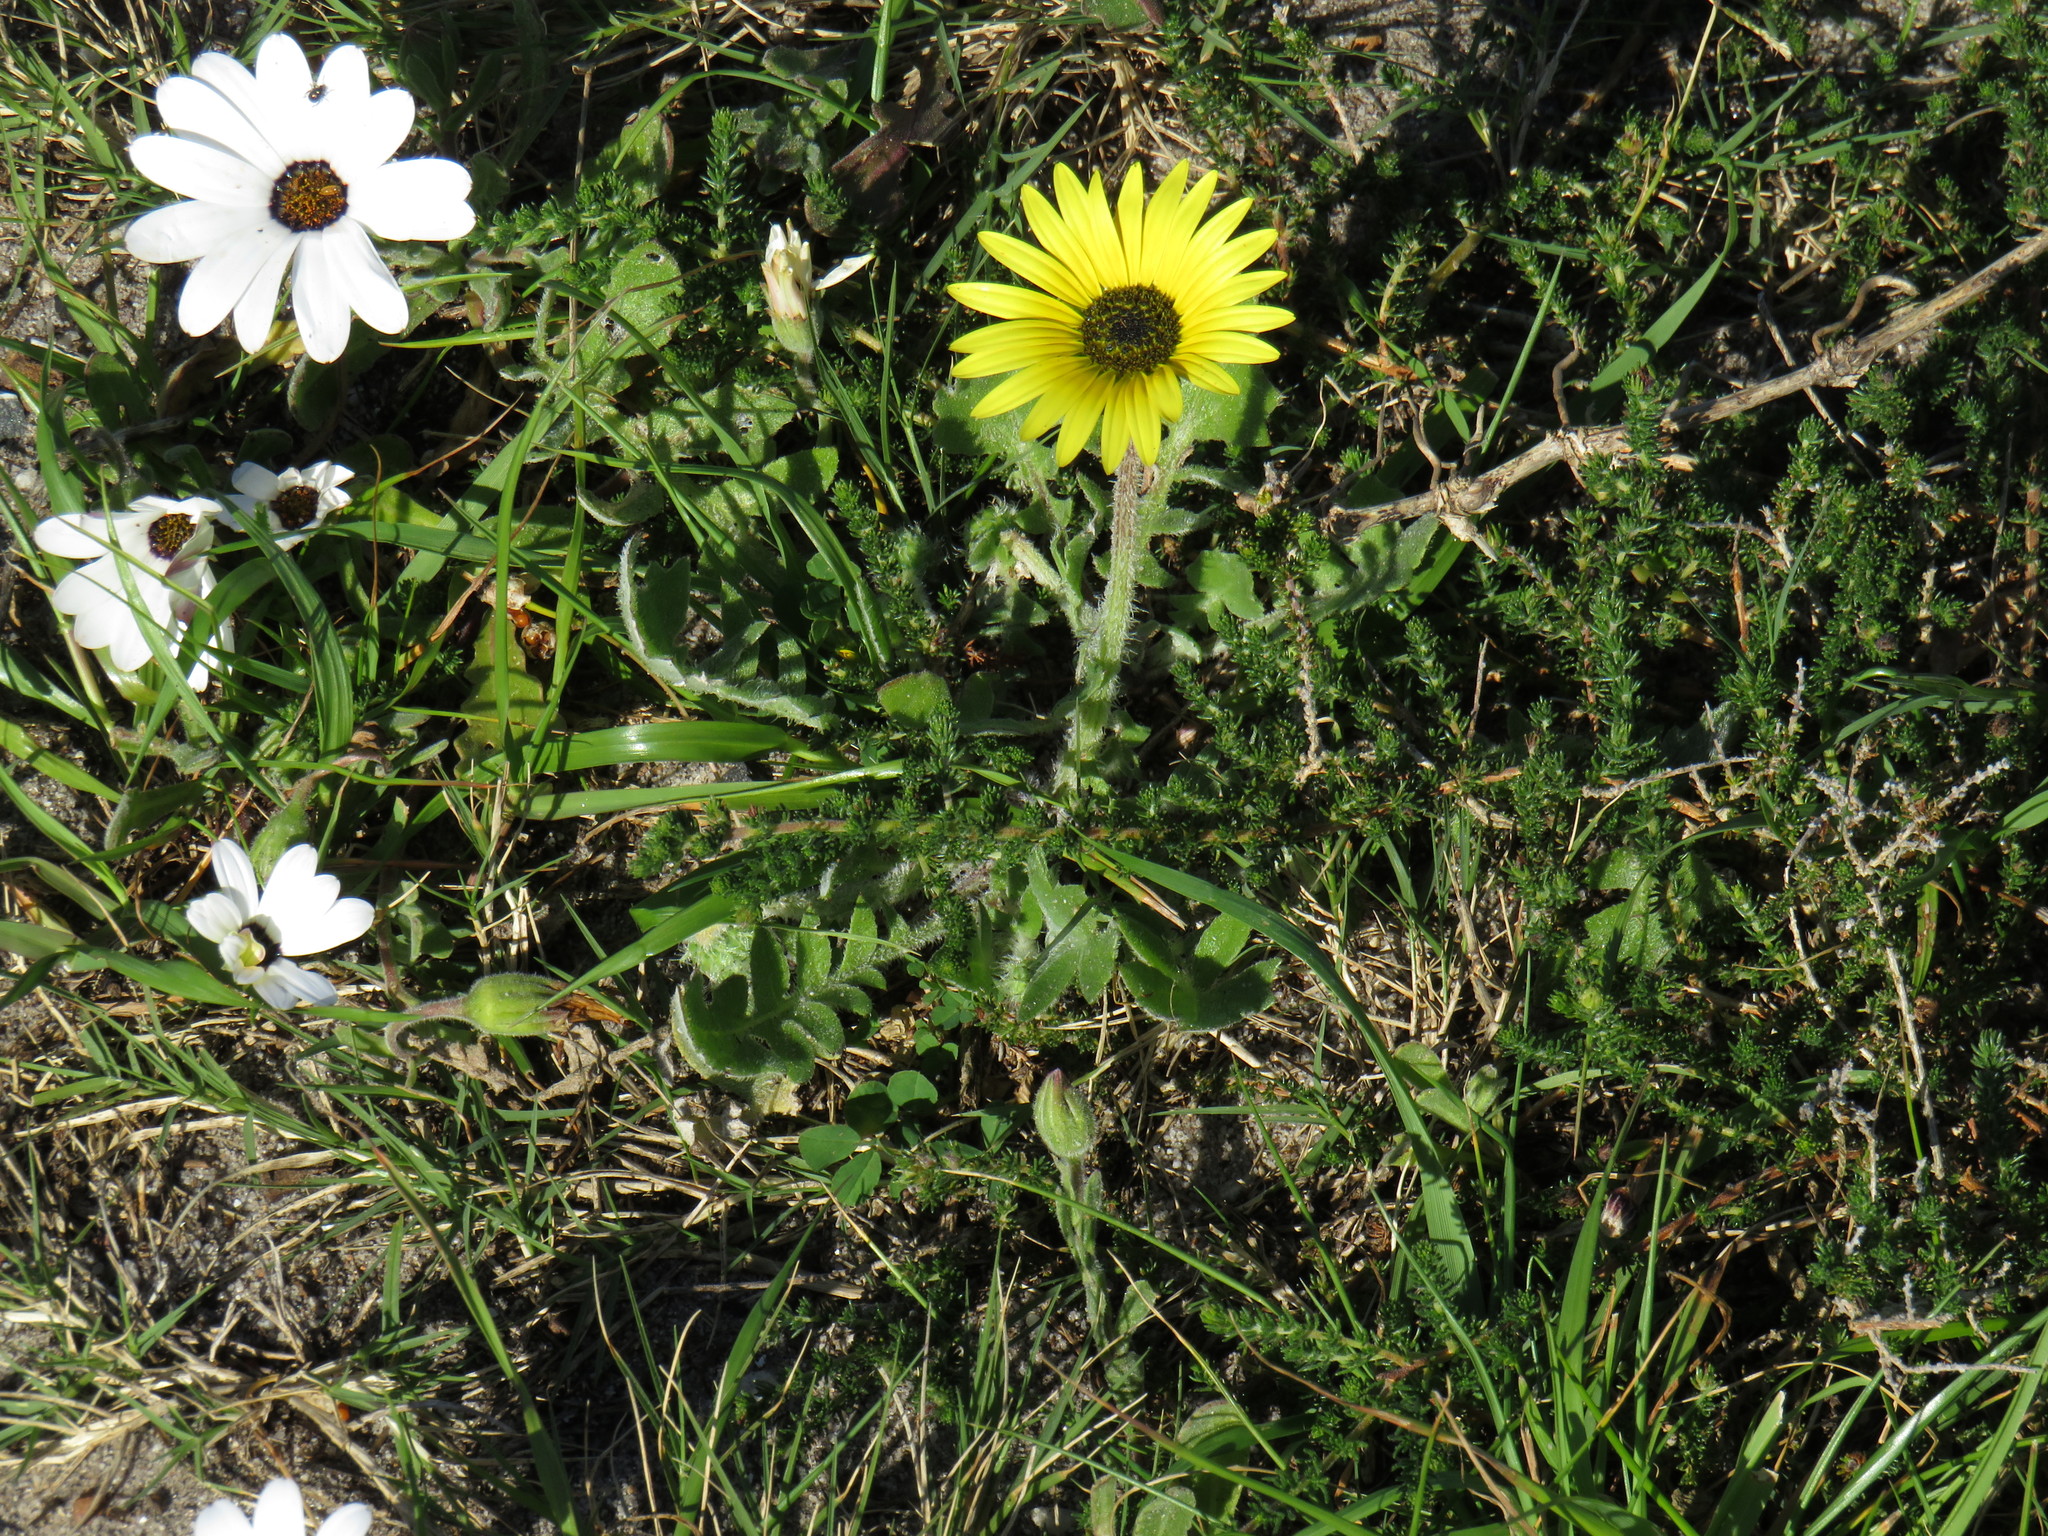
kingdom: Plantae
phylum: Tracheophyta
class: Magnoliopsida
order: Asterales
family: Asteraceae
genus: Arctotheca
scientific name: Arctotheca calendula
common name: Capeweed
